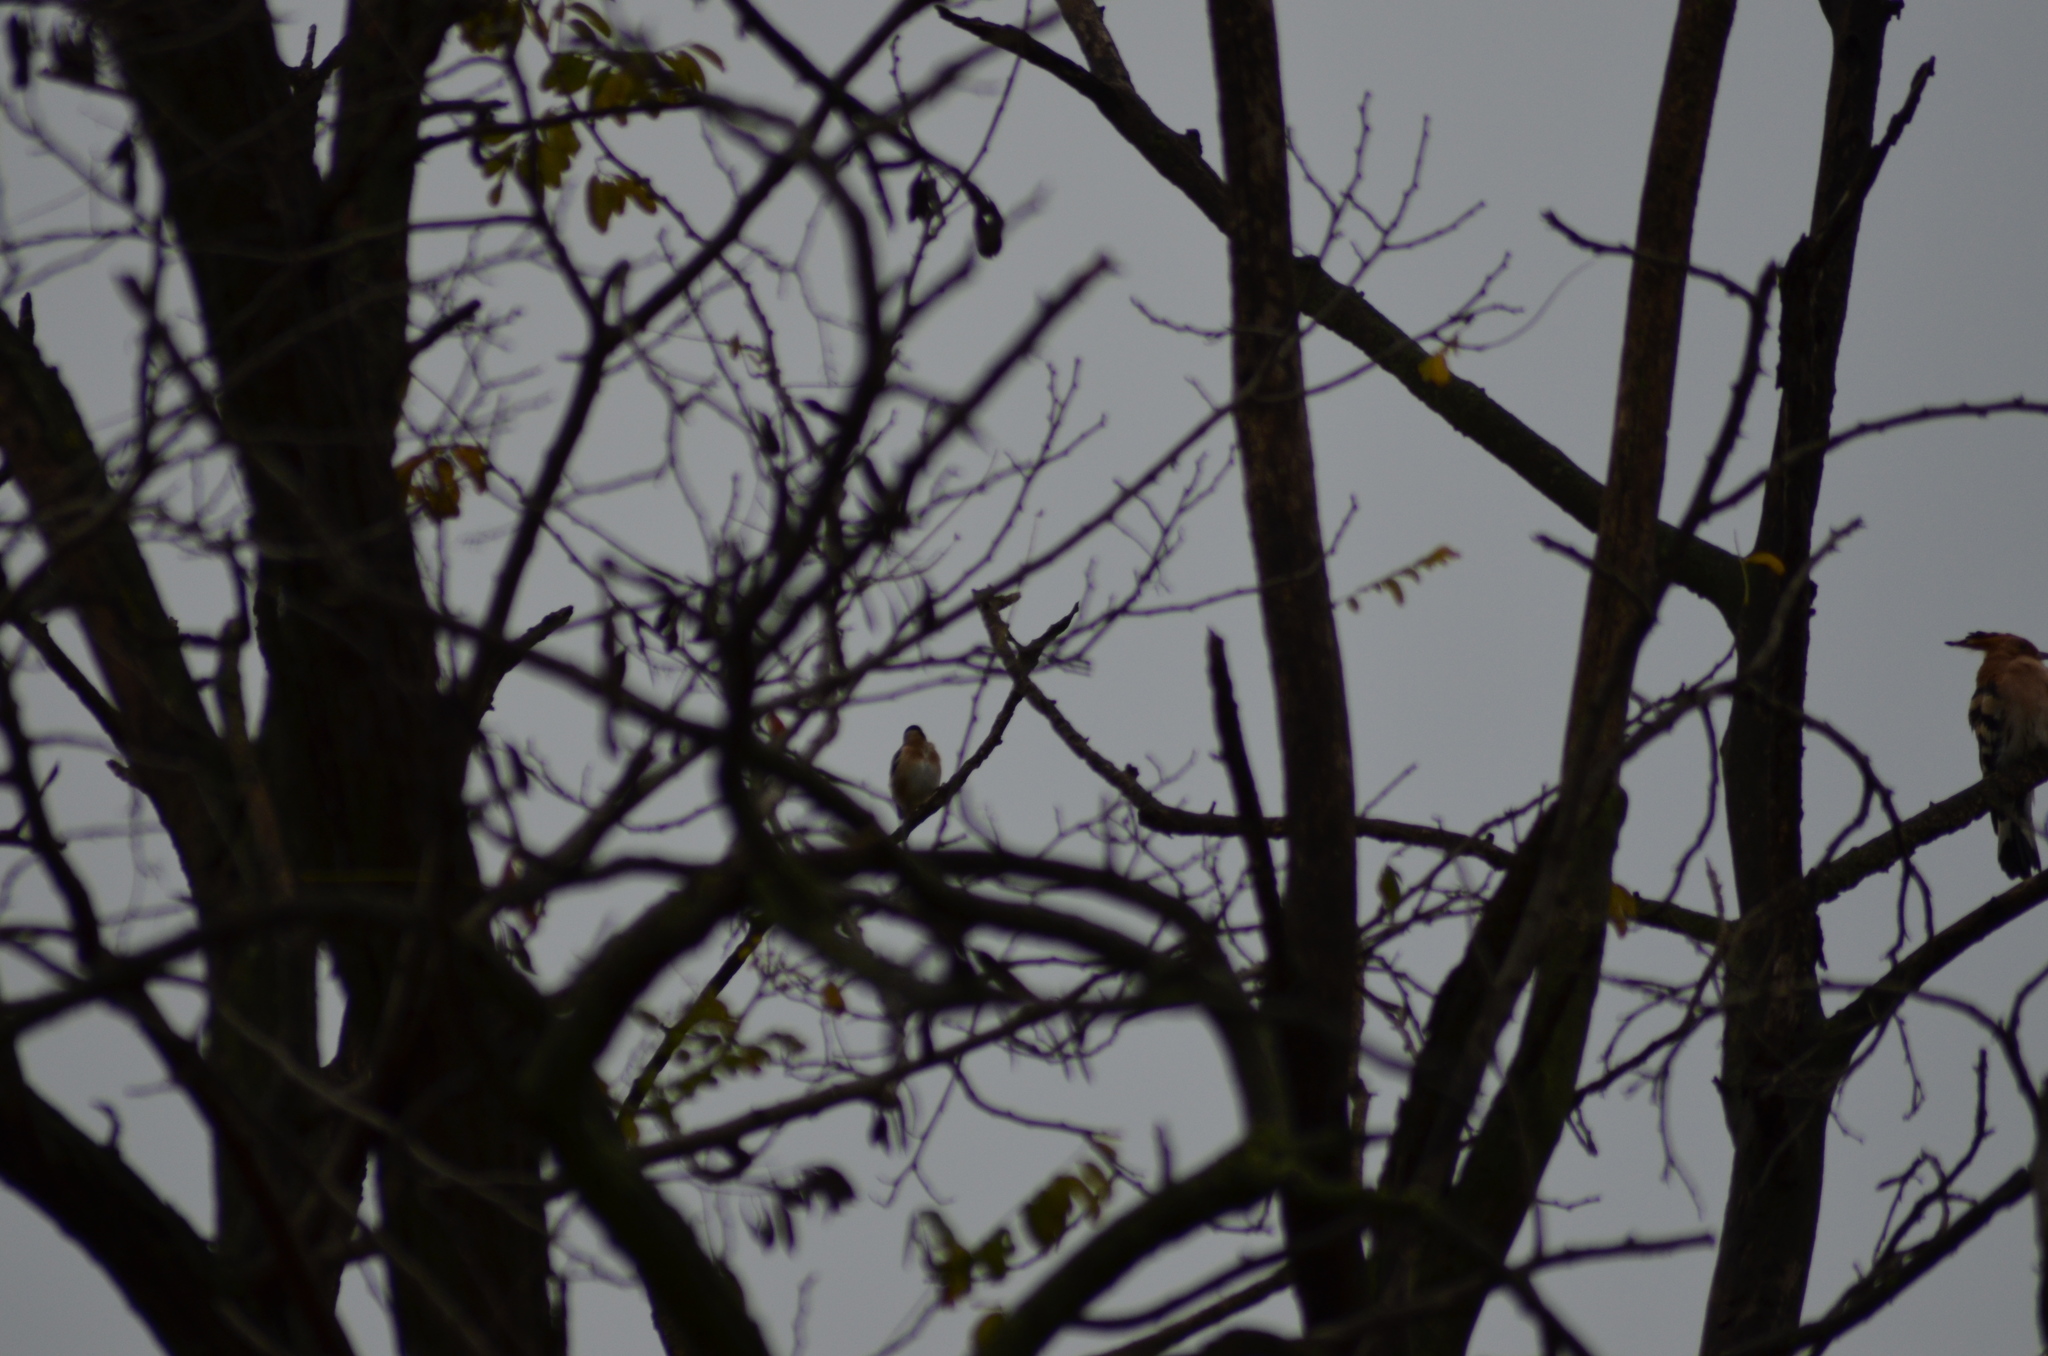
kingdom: Animalia
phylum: Chordata
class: Aves
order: Passeriformes
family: Fringillidae
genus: Carduelis
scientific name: Carduelis carduelis
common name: European goldfinch
